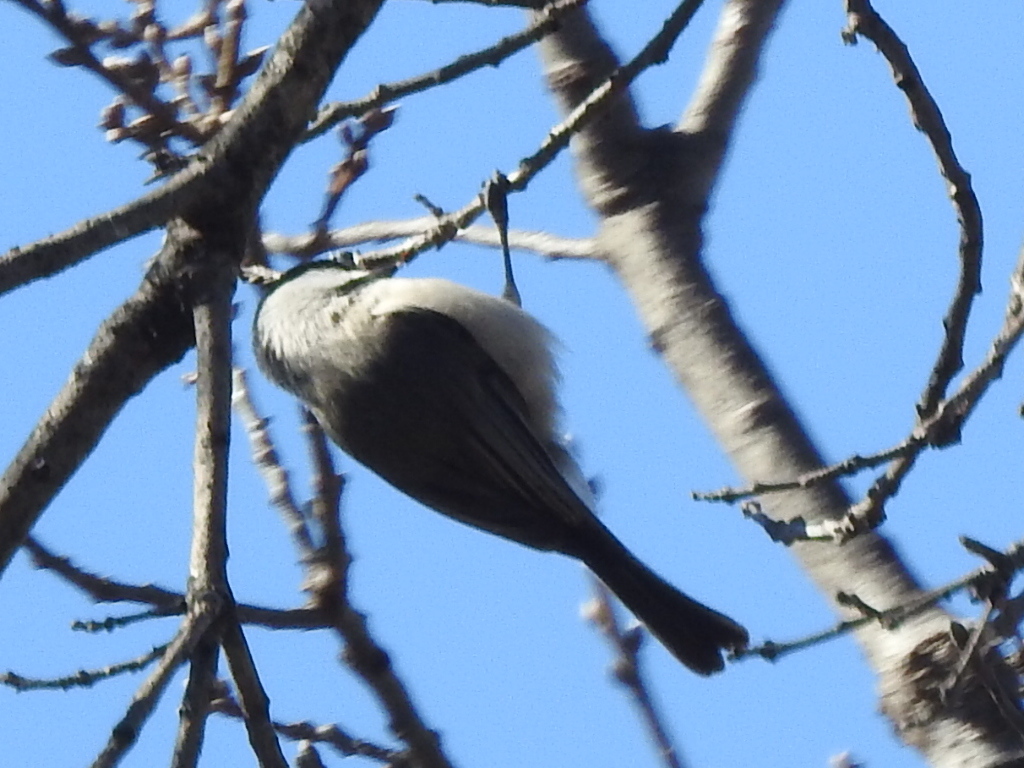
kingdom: Animalia
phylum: Chordata
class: Aves
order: Passeriformes
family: Paridae
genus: Poecile
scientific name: Poecile carolinensis
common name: Carolina chickadee
